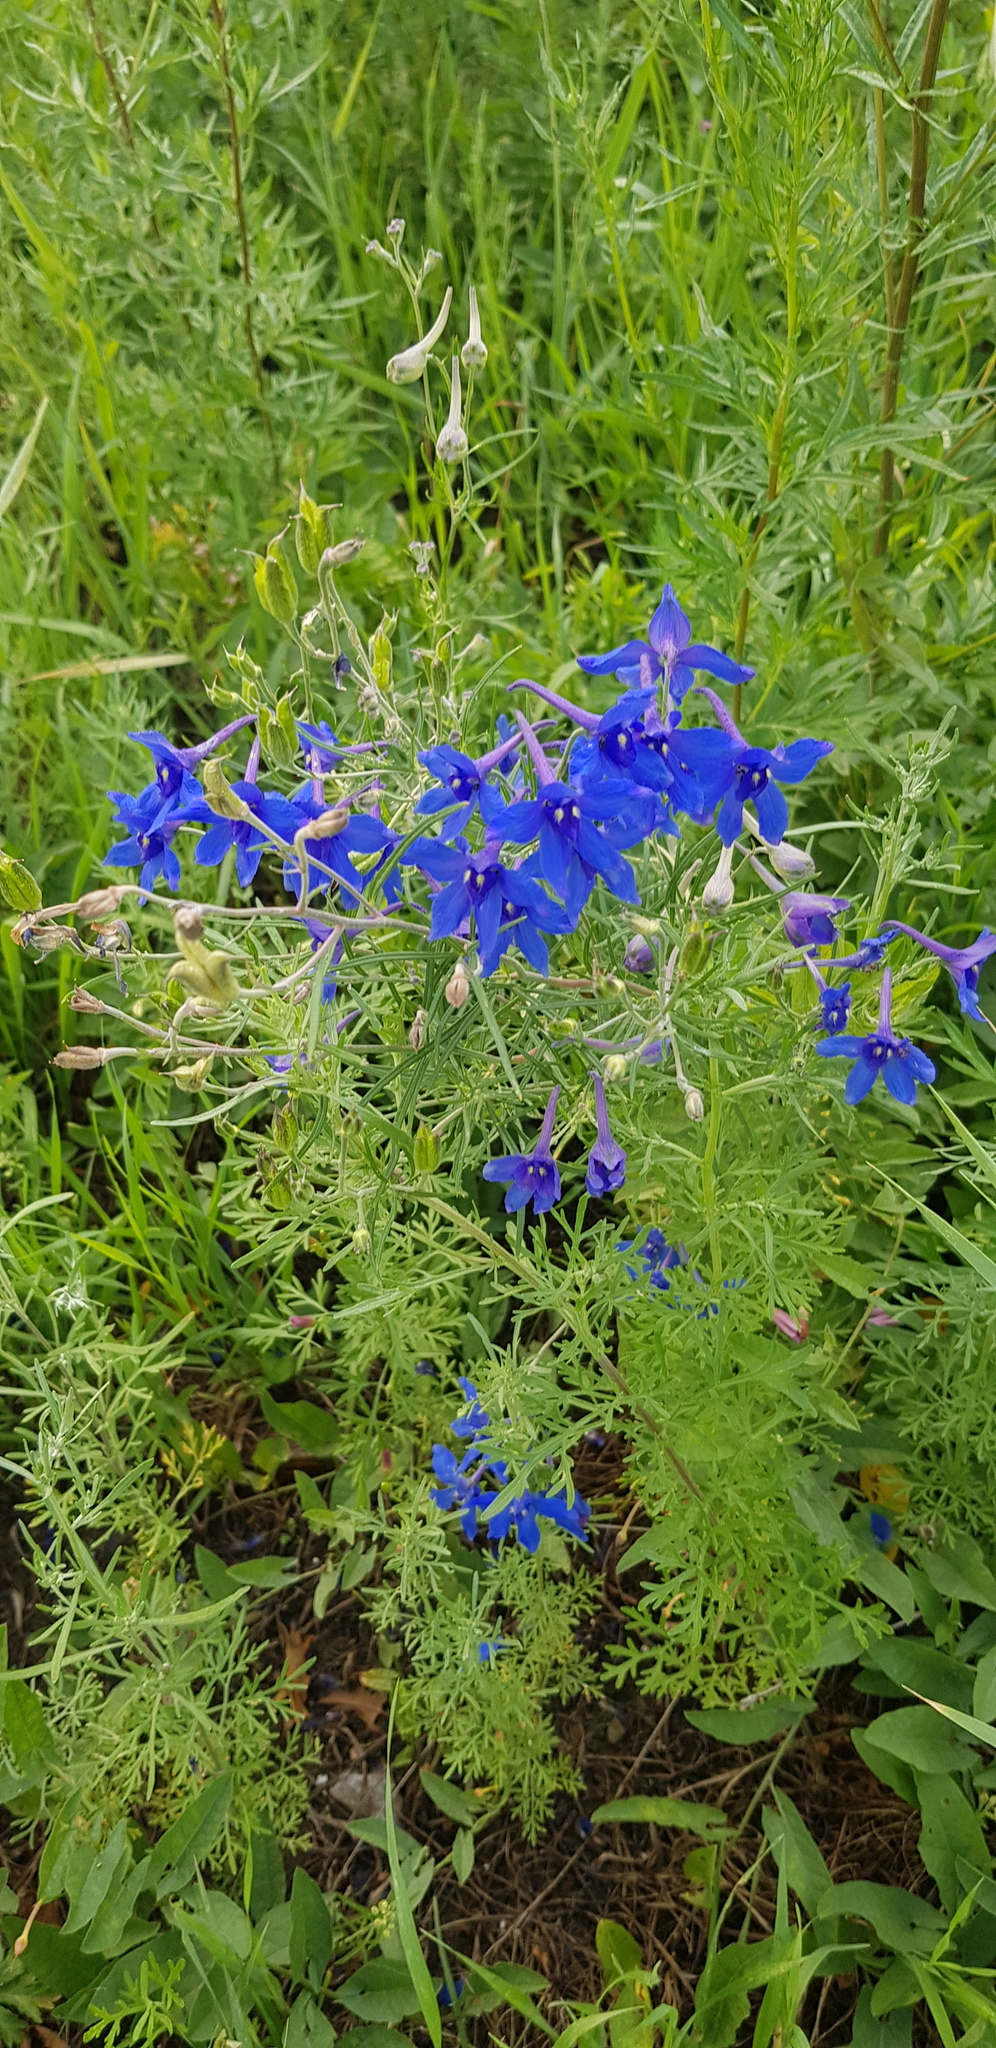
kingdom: Plantae
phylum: Tracheophyta
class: Magnoliopsida
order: Ranunculales
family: Ranunculaceae
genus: Delphinium
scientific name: Delphinium grandiflorum
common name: Siberian larkspur
